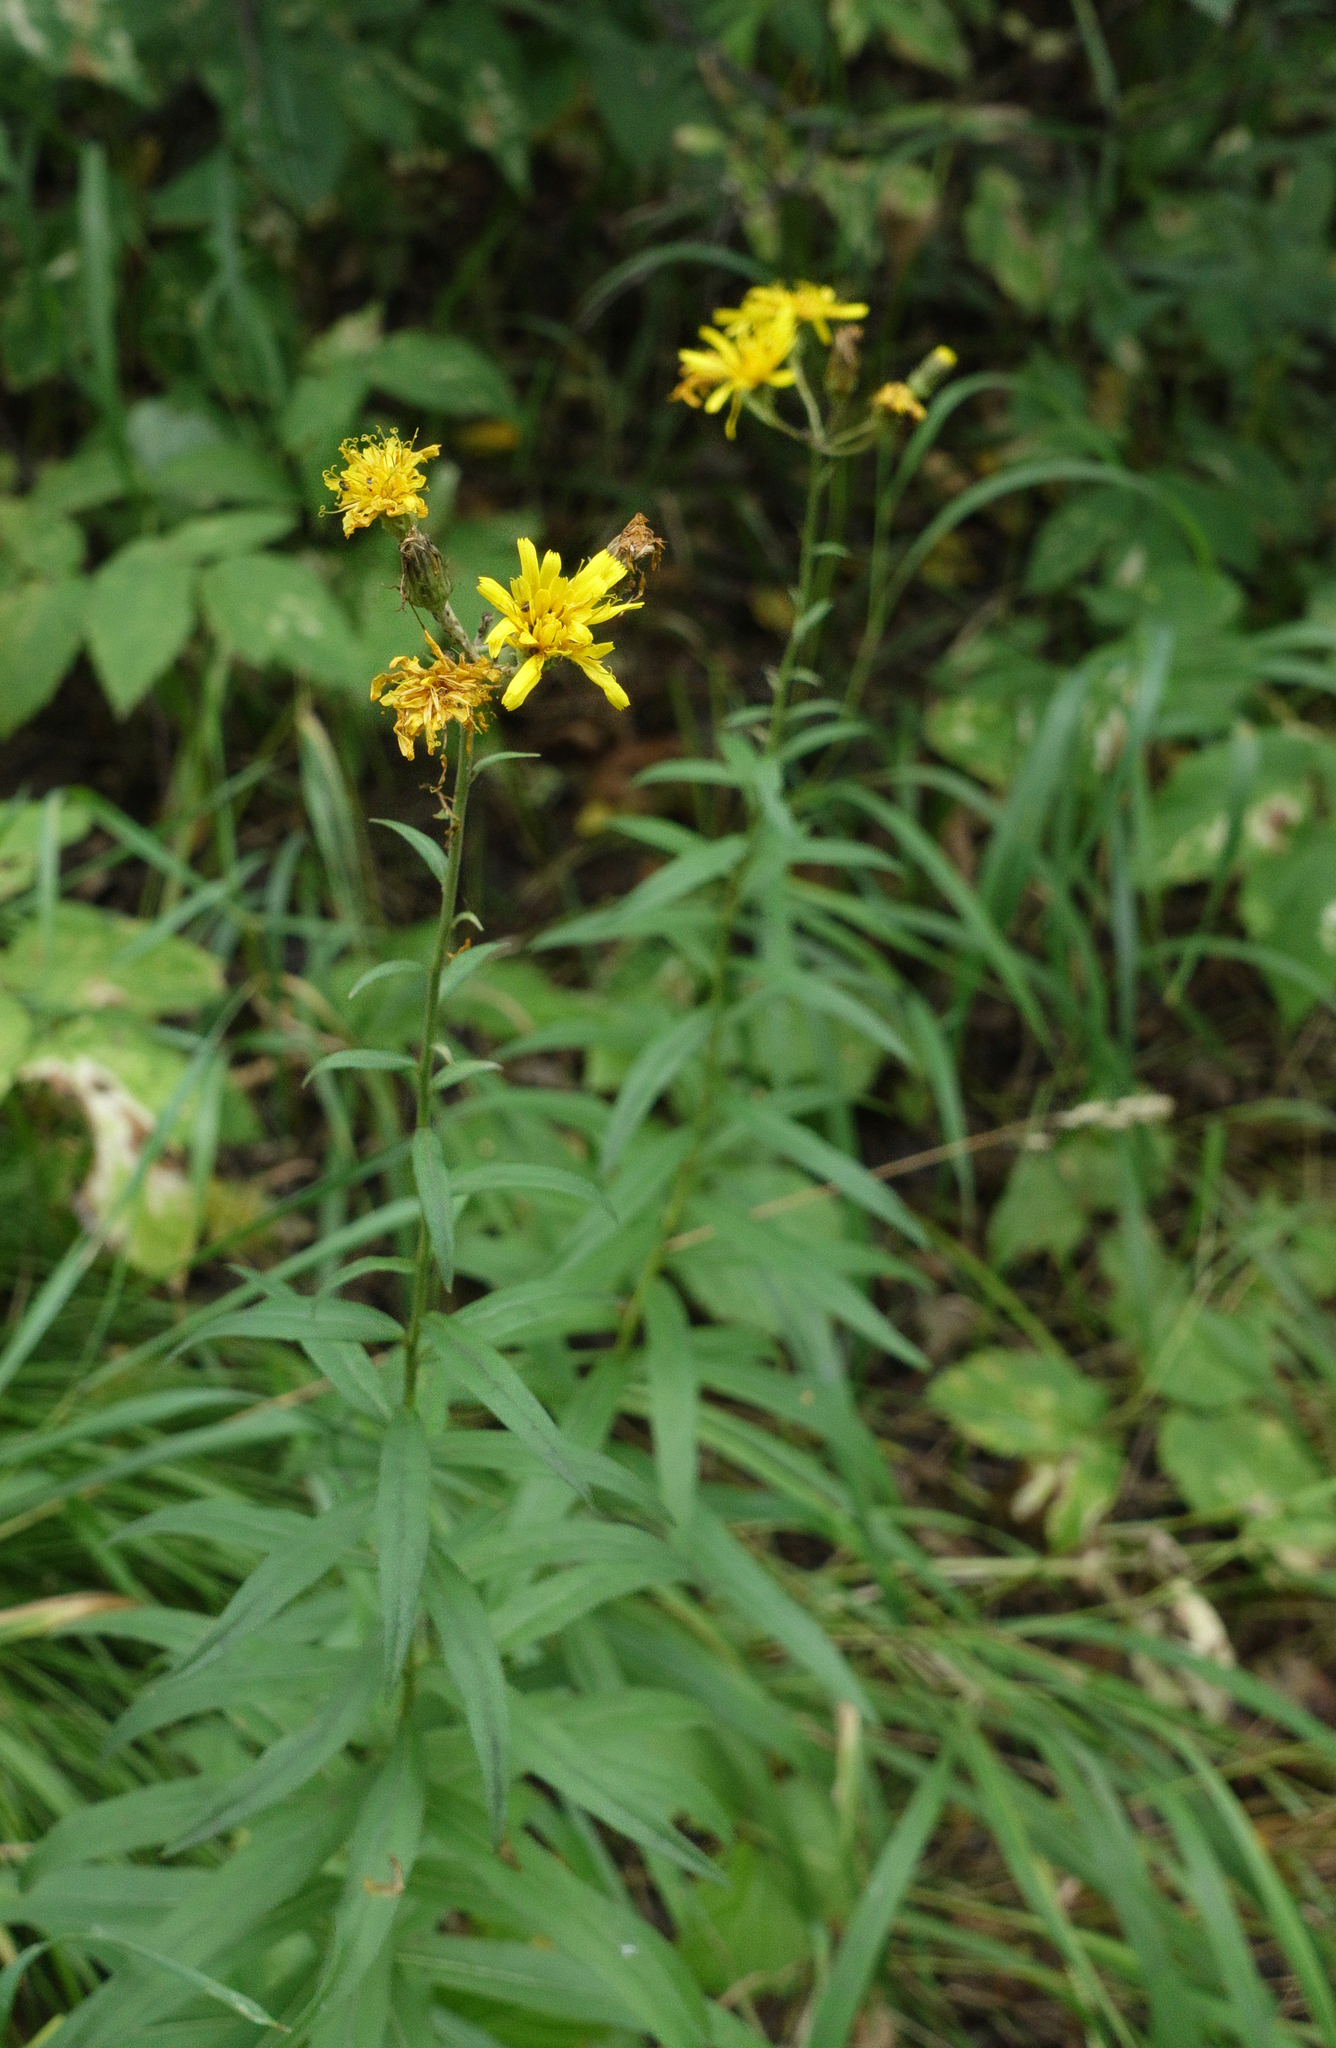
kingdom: Plantae
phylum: Tracheophyta
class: Magnoliopsida
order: Asterales
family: Asteraceae
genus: Hieracium
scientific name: Hieracium umbellatum
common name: Northern hawkweed
